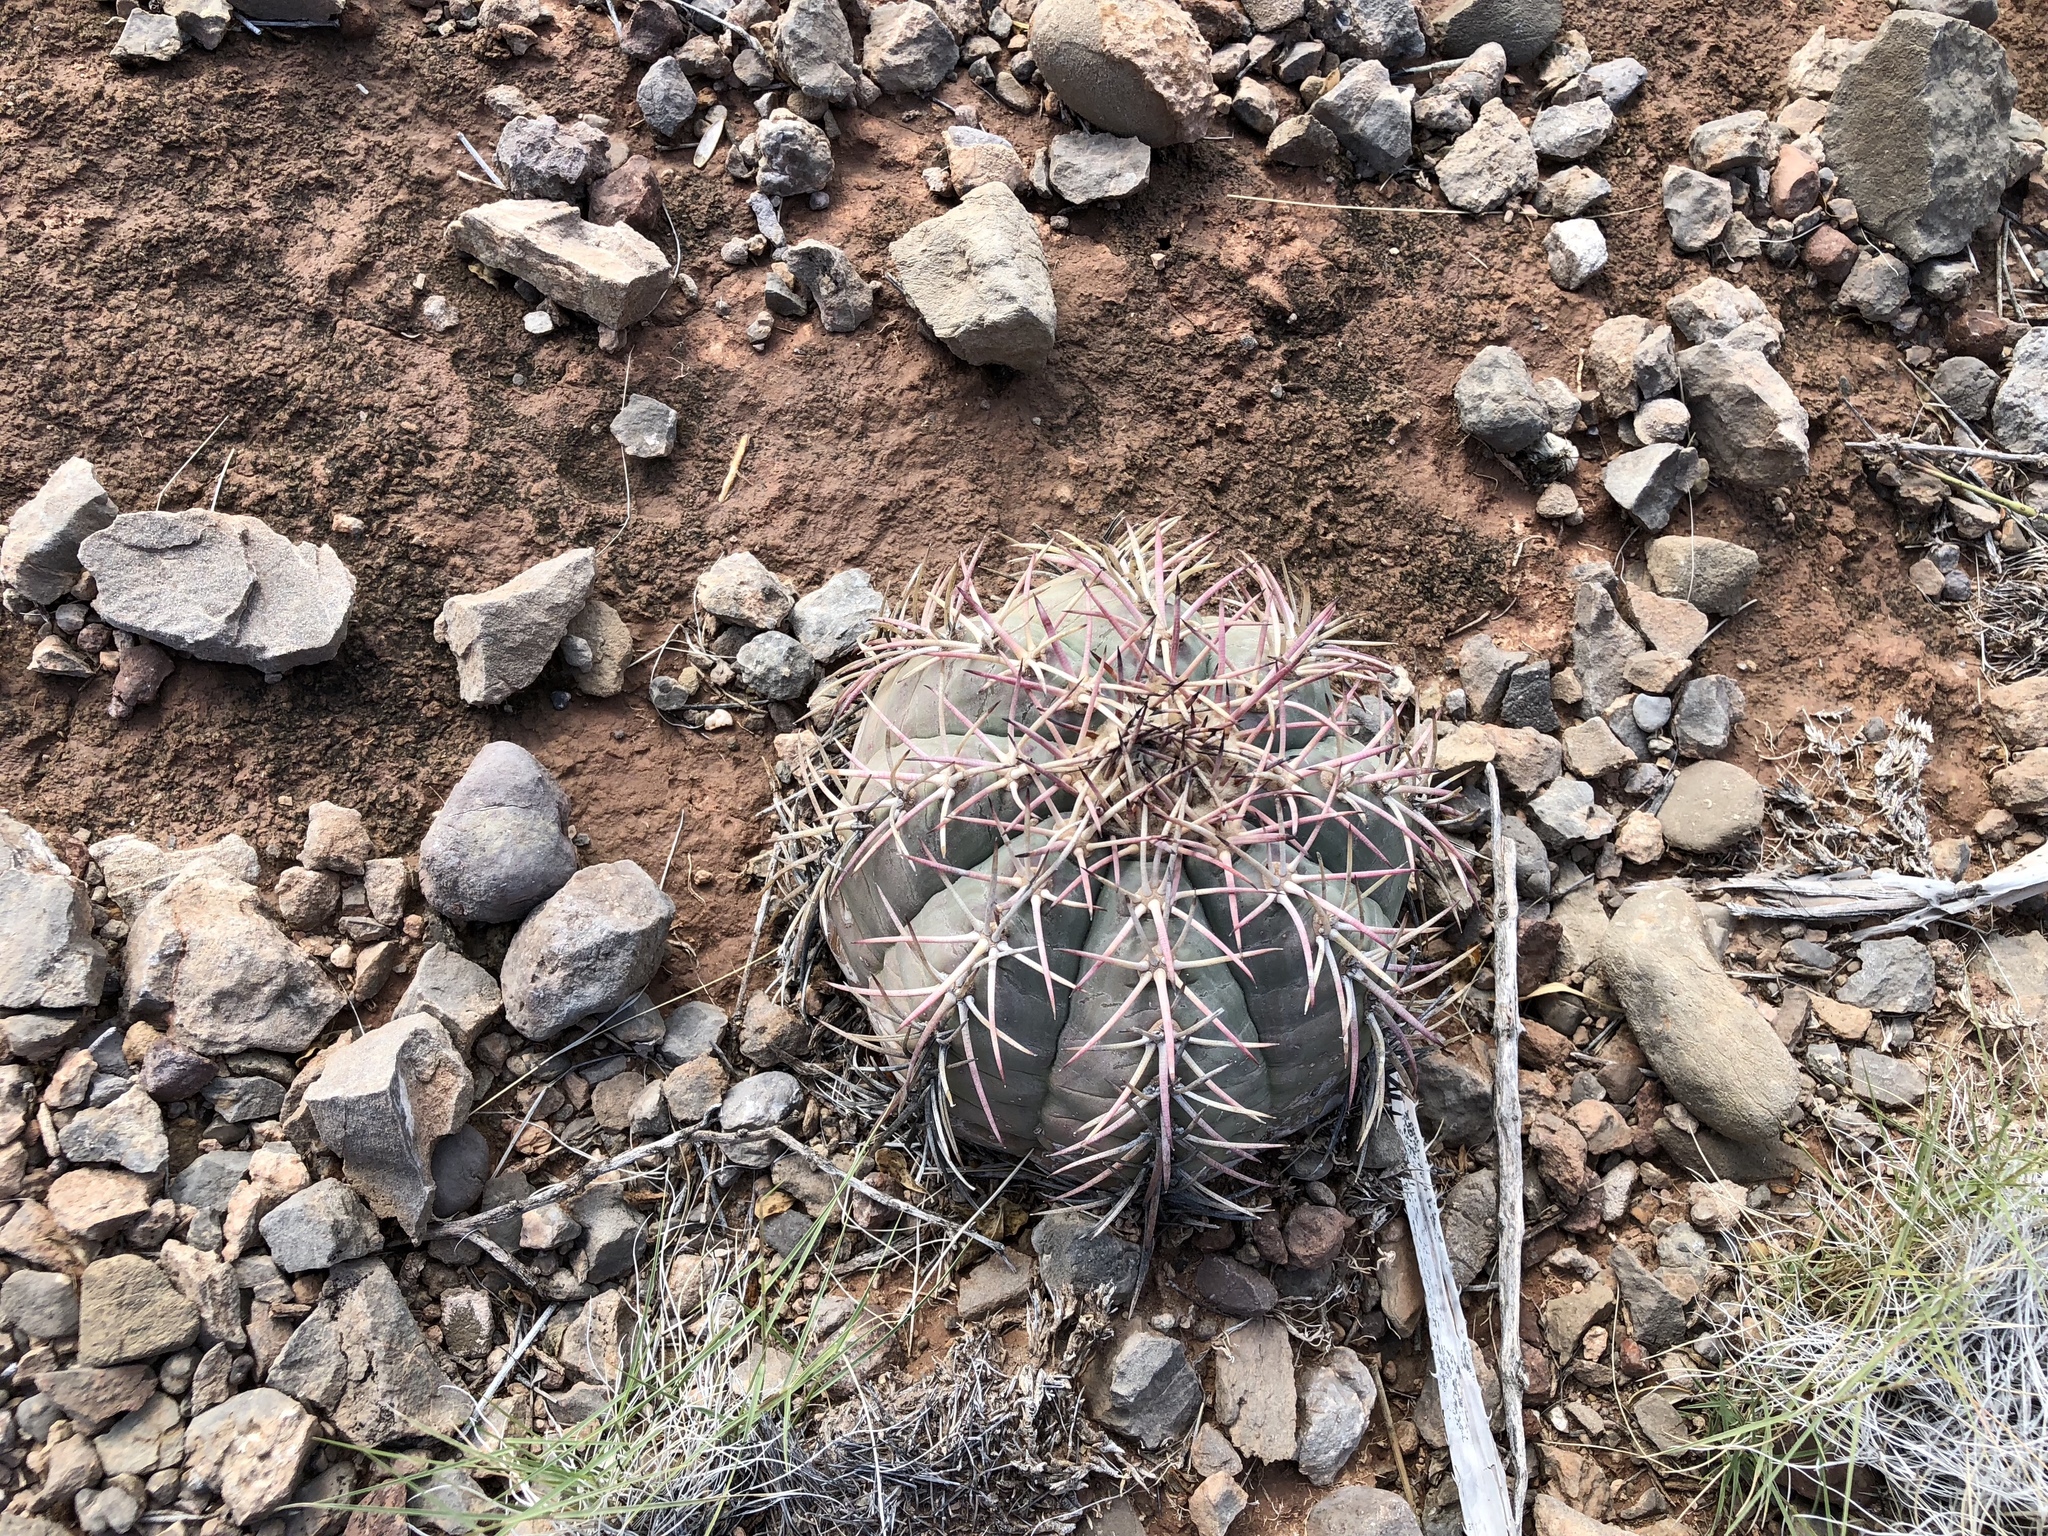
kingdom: Plantae
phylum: Tracheophyta
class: Magnoliopsida
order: Caryophyllales
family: Cactaceae
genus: Echinocactus
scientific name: Echinocactus horizonthalonius
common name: Devilshead
